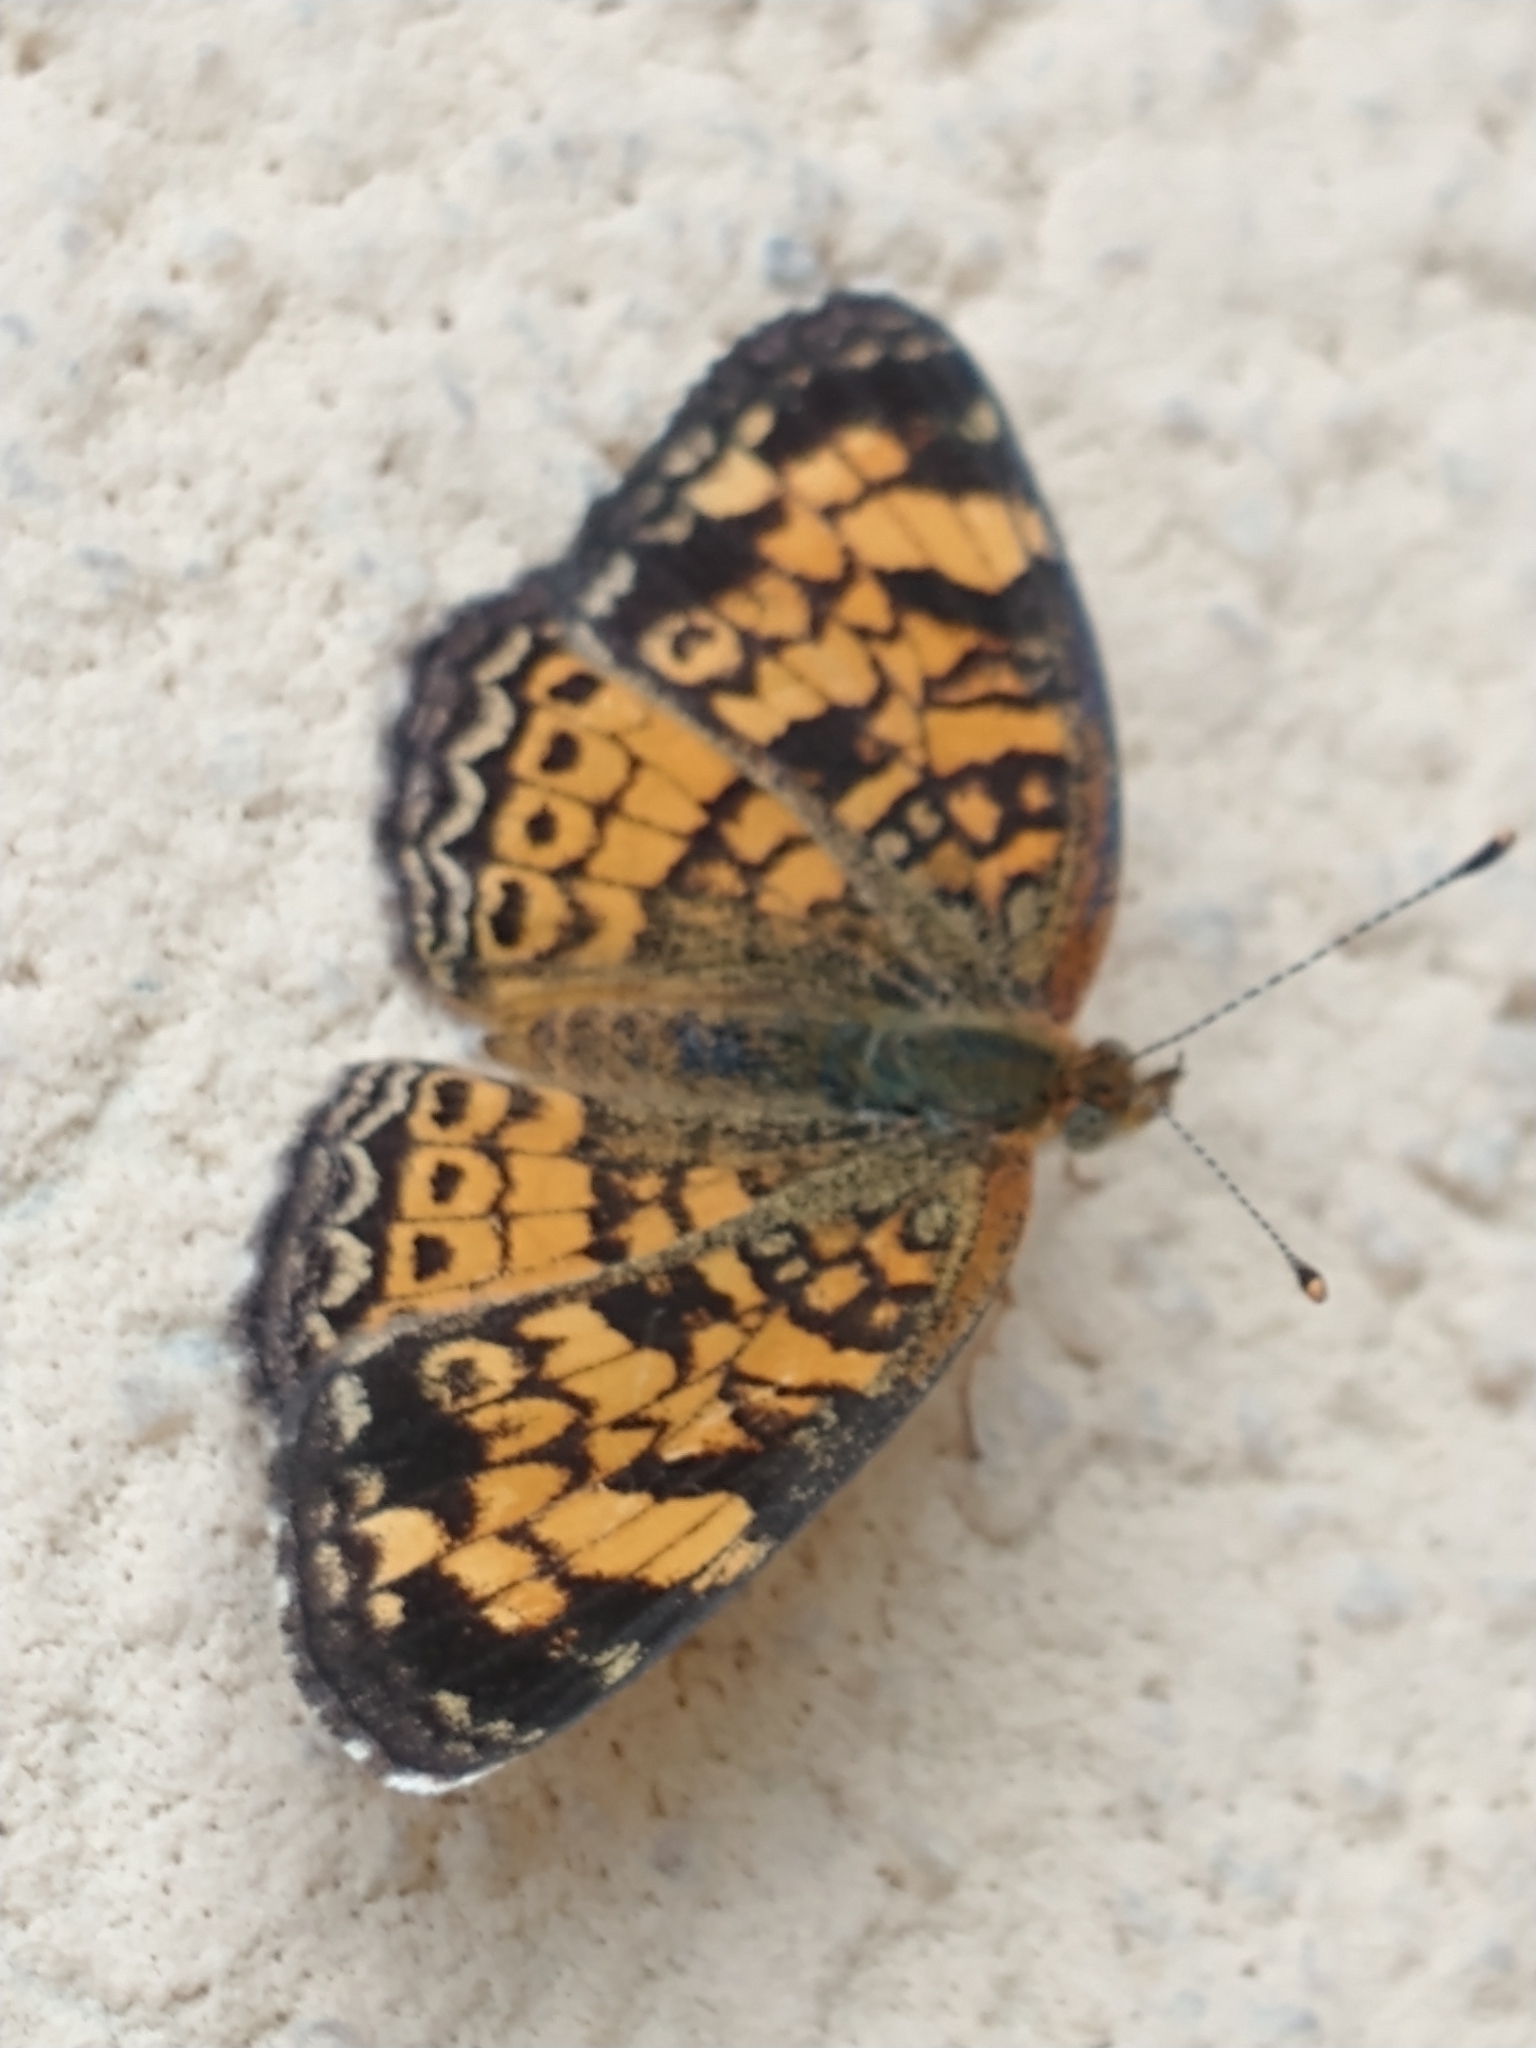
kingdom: Animalia
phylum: Arthropoda
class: Insecta
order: Lepidoptera
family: Nymphalidae
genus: Phyciodes
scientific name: Phyciodes tharos
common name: Pearl crescent
